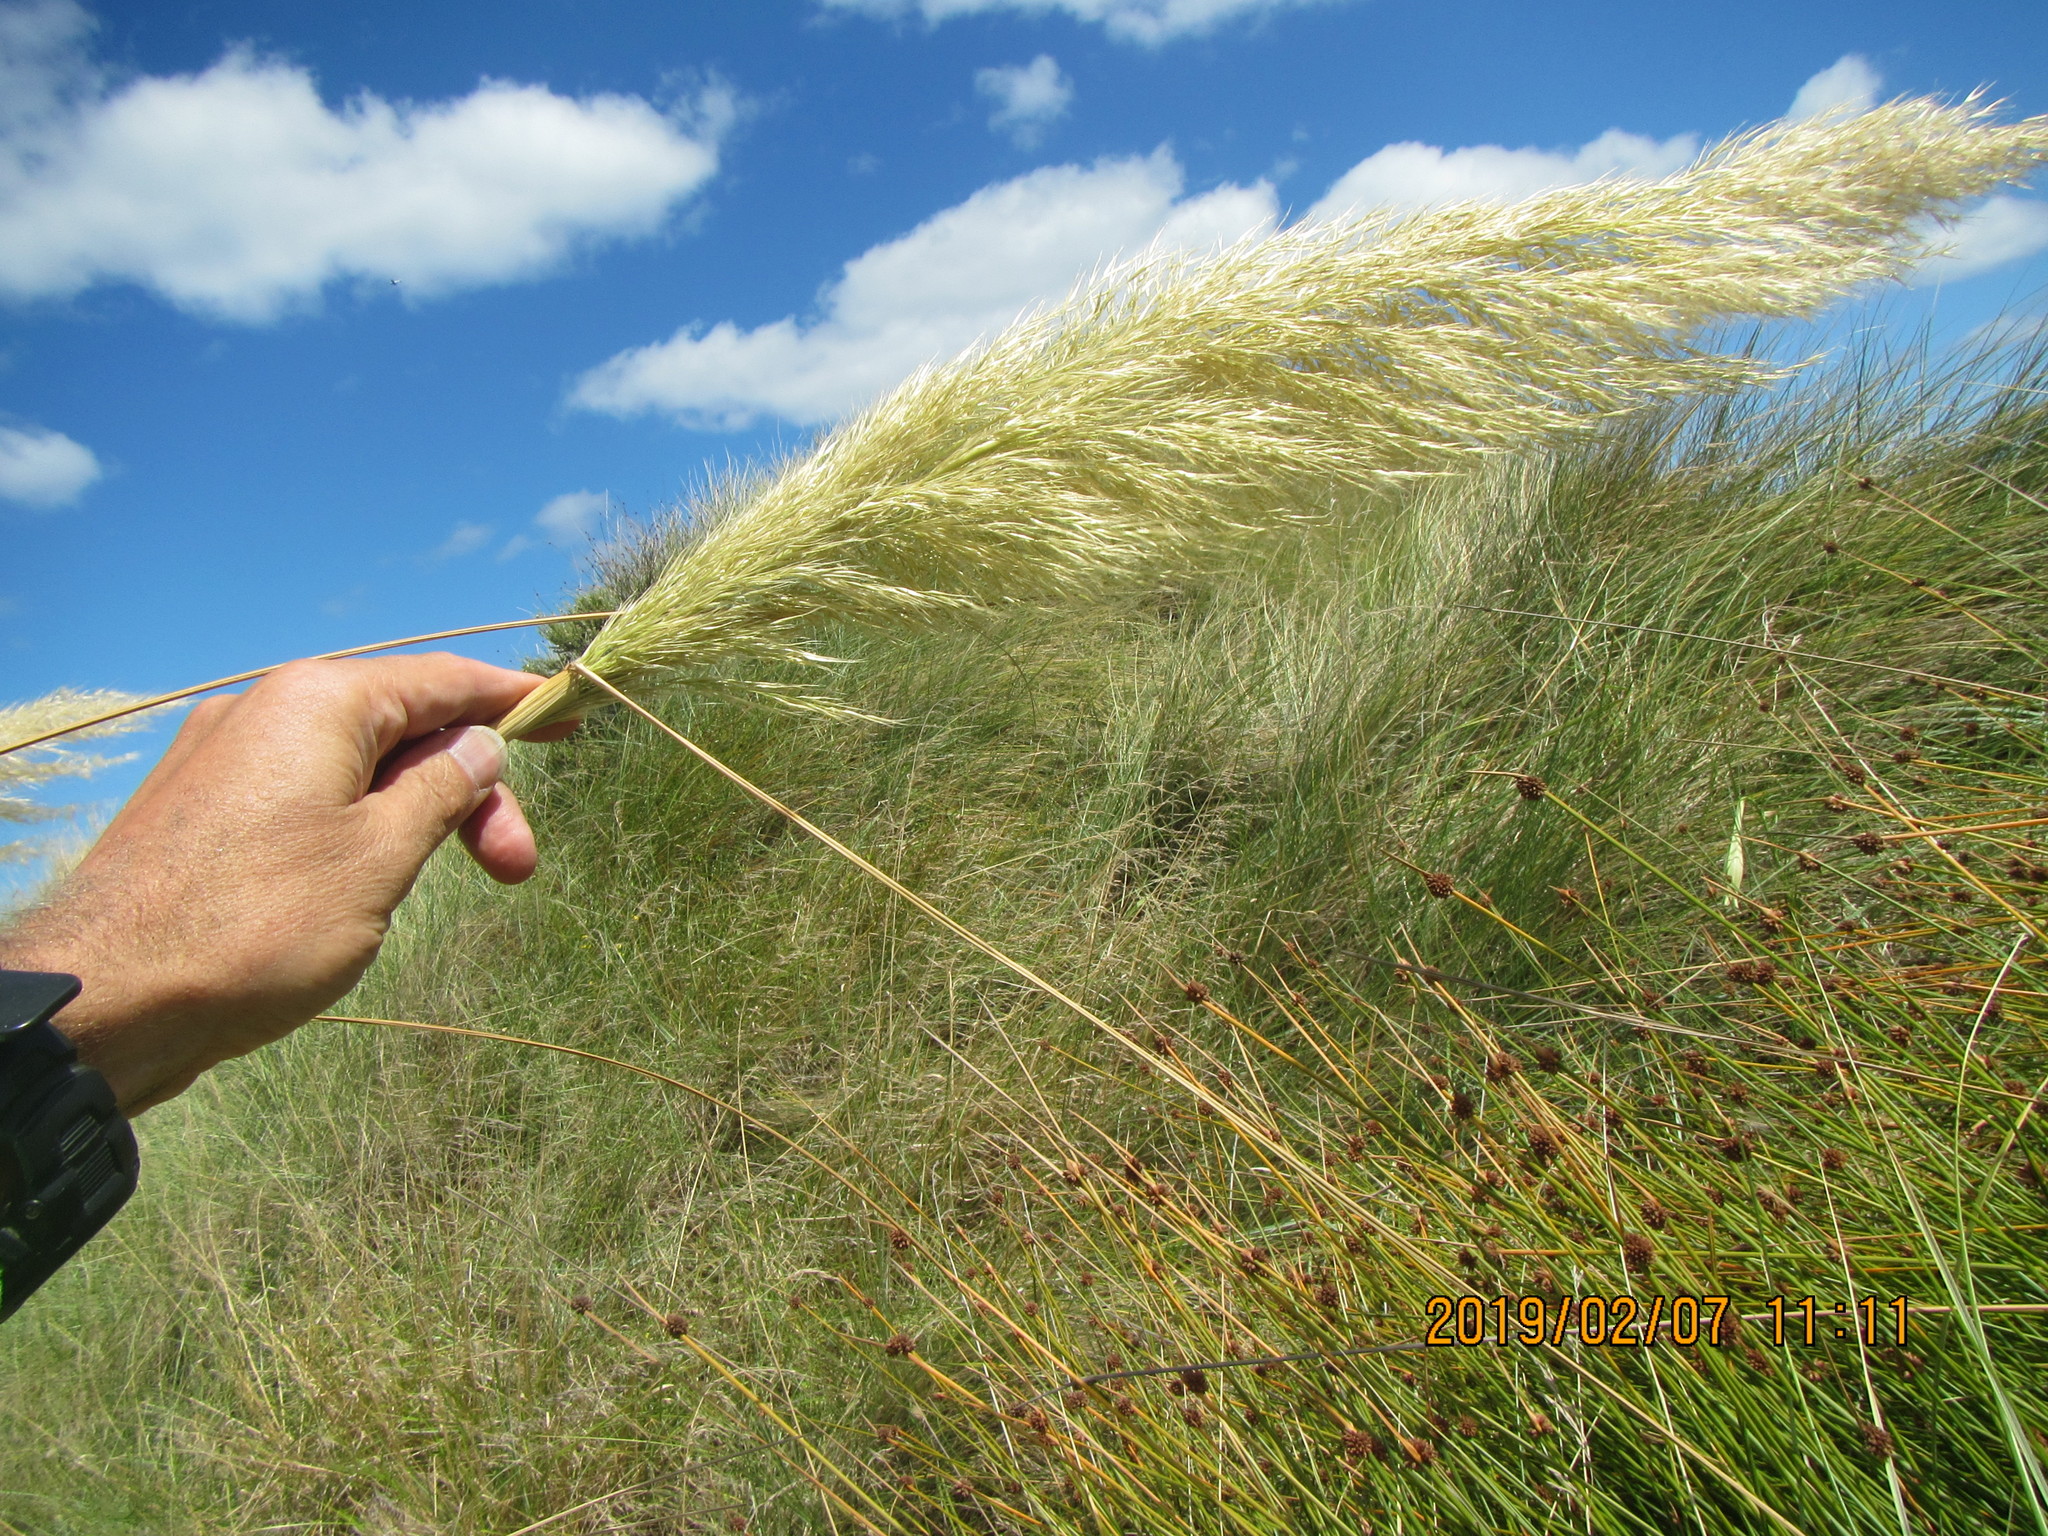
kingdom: Plantae
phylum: Tracheophyta
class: Liliopsida
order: Poales
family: Poaceae
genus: Austroderia
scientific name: Austroderia toetoe
